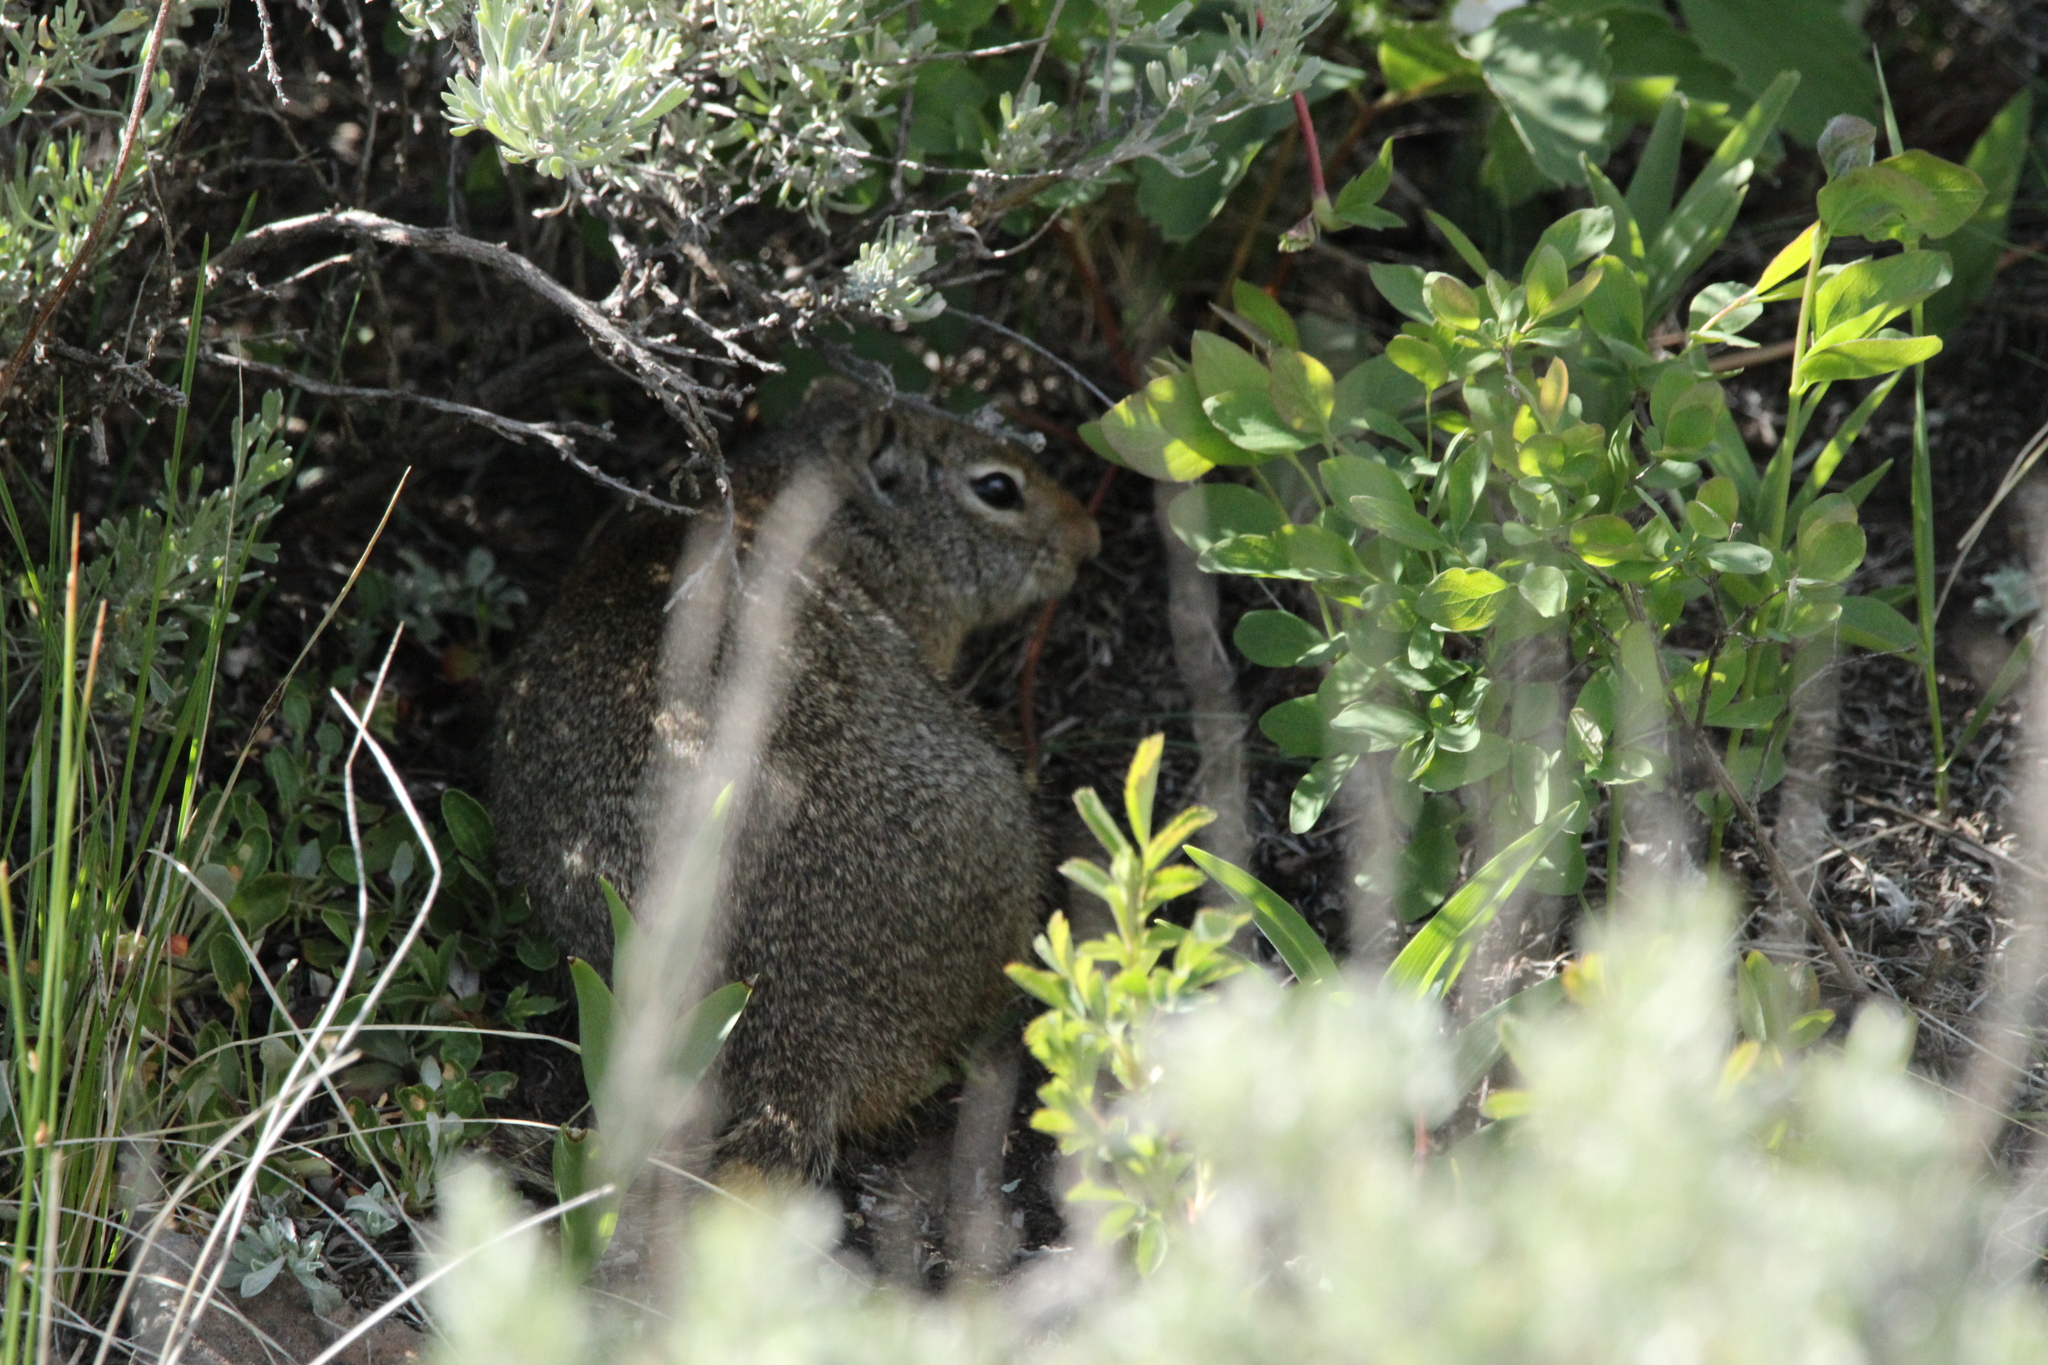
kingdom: Animalia
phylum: Chordata
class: Mammalia
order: Rodentia
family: Sciuridae
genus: Urocitellus
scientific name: Urocitellus armatus
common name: Uinta ground squirrel
